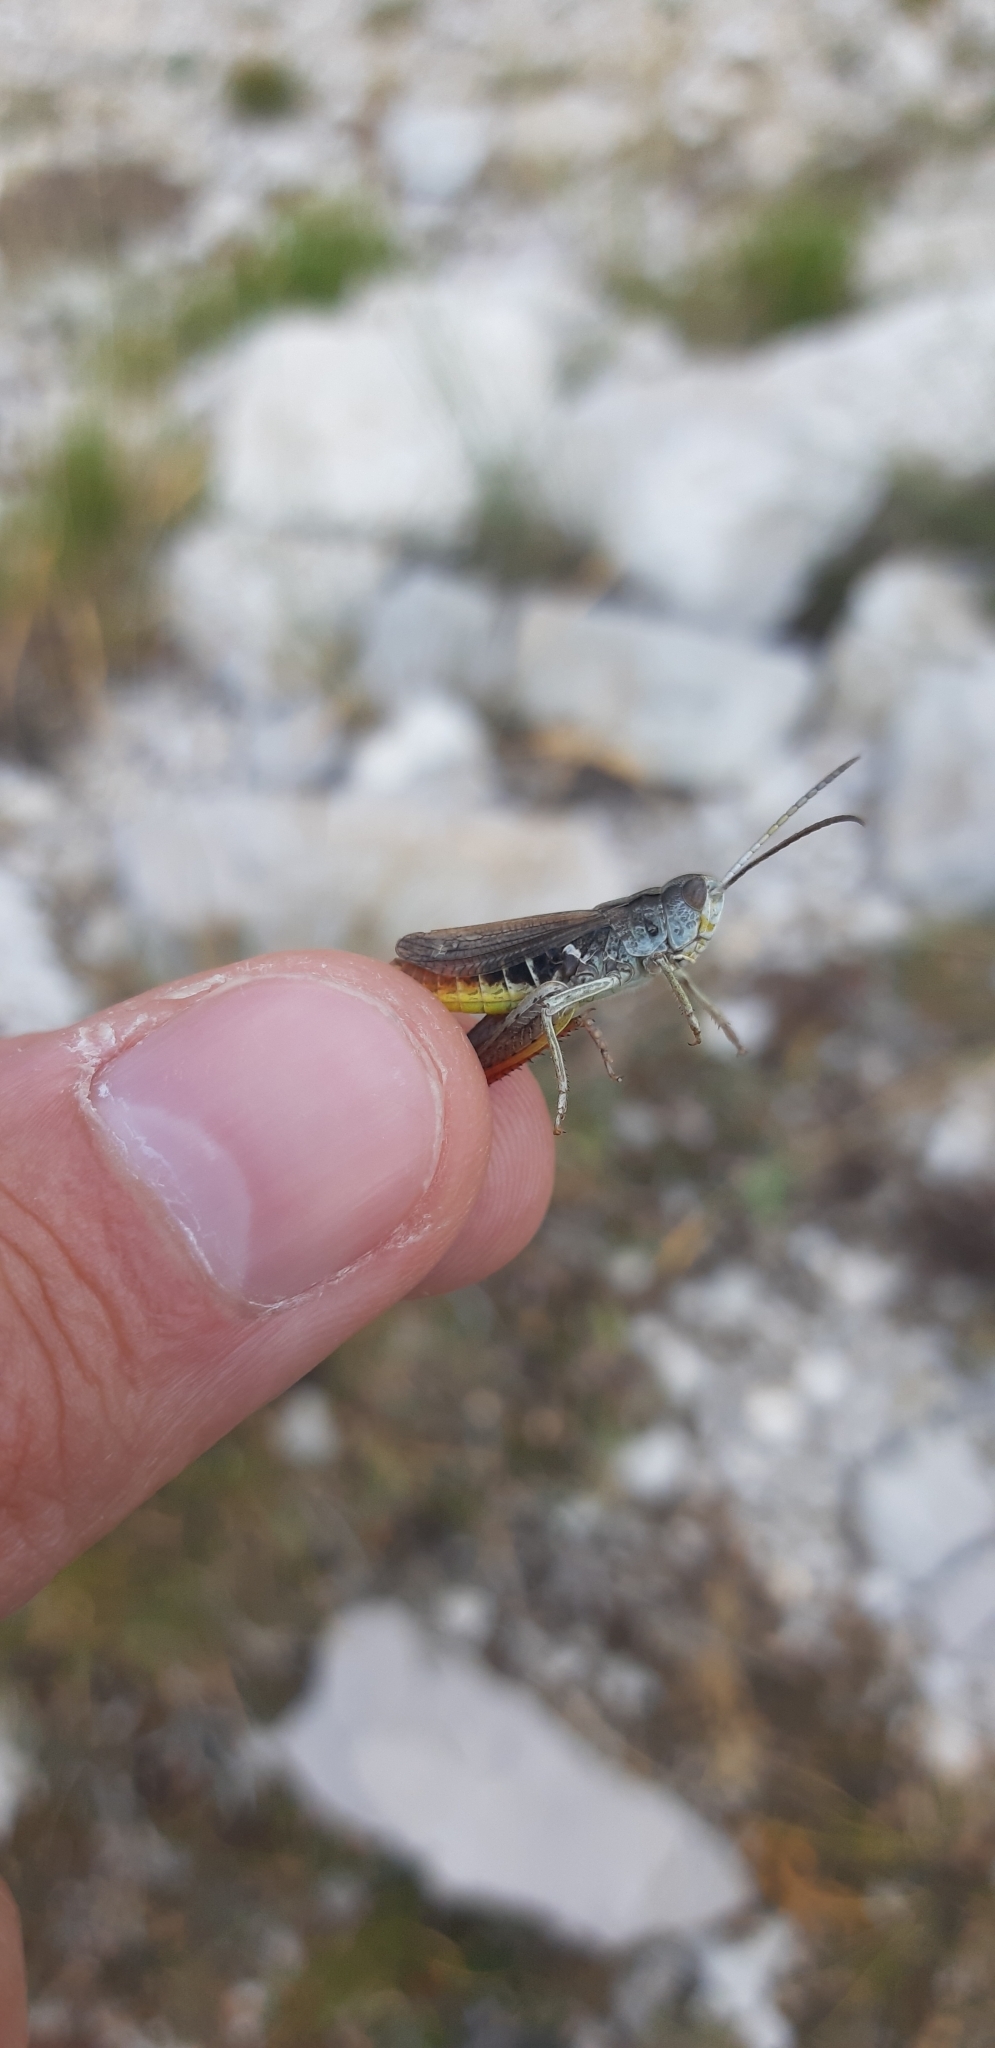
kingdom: Animalia
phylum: Arthropoda
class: Insecta
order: Orthoptera
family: Acrididae
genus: Italohippus
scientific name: Italohippus modestus
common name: Reatine italian grasshopper
